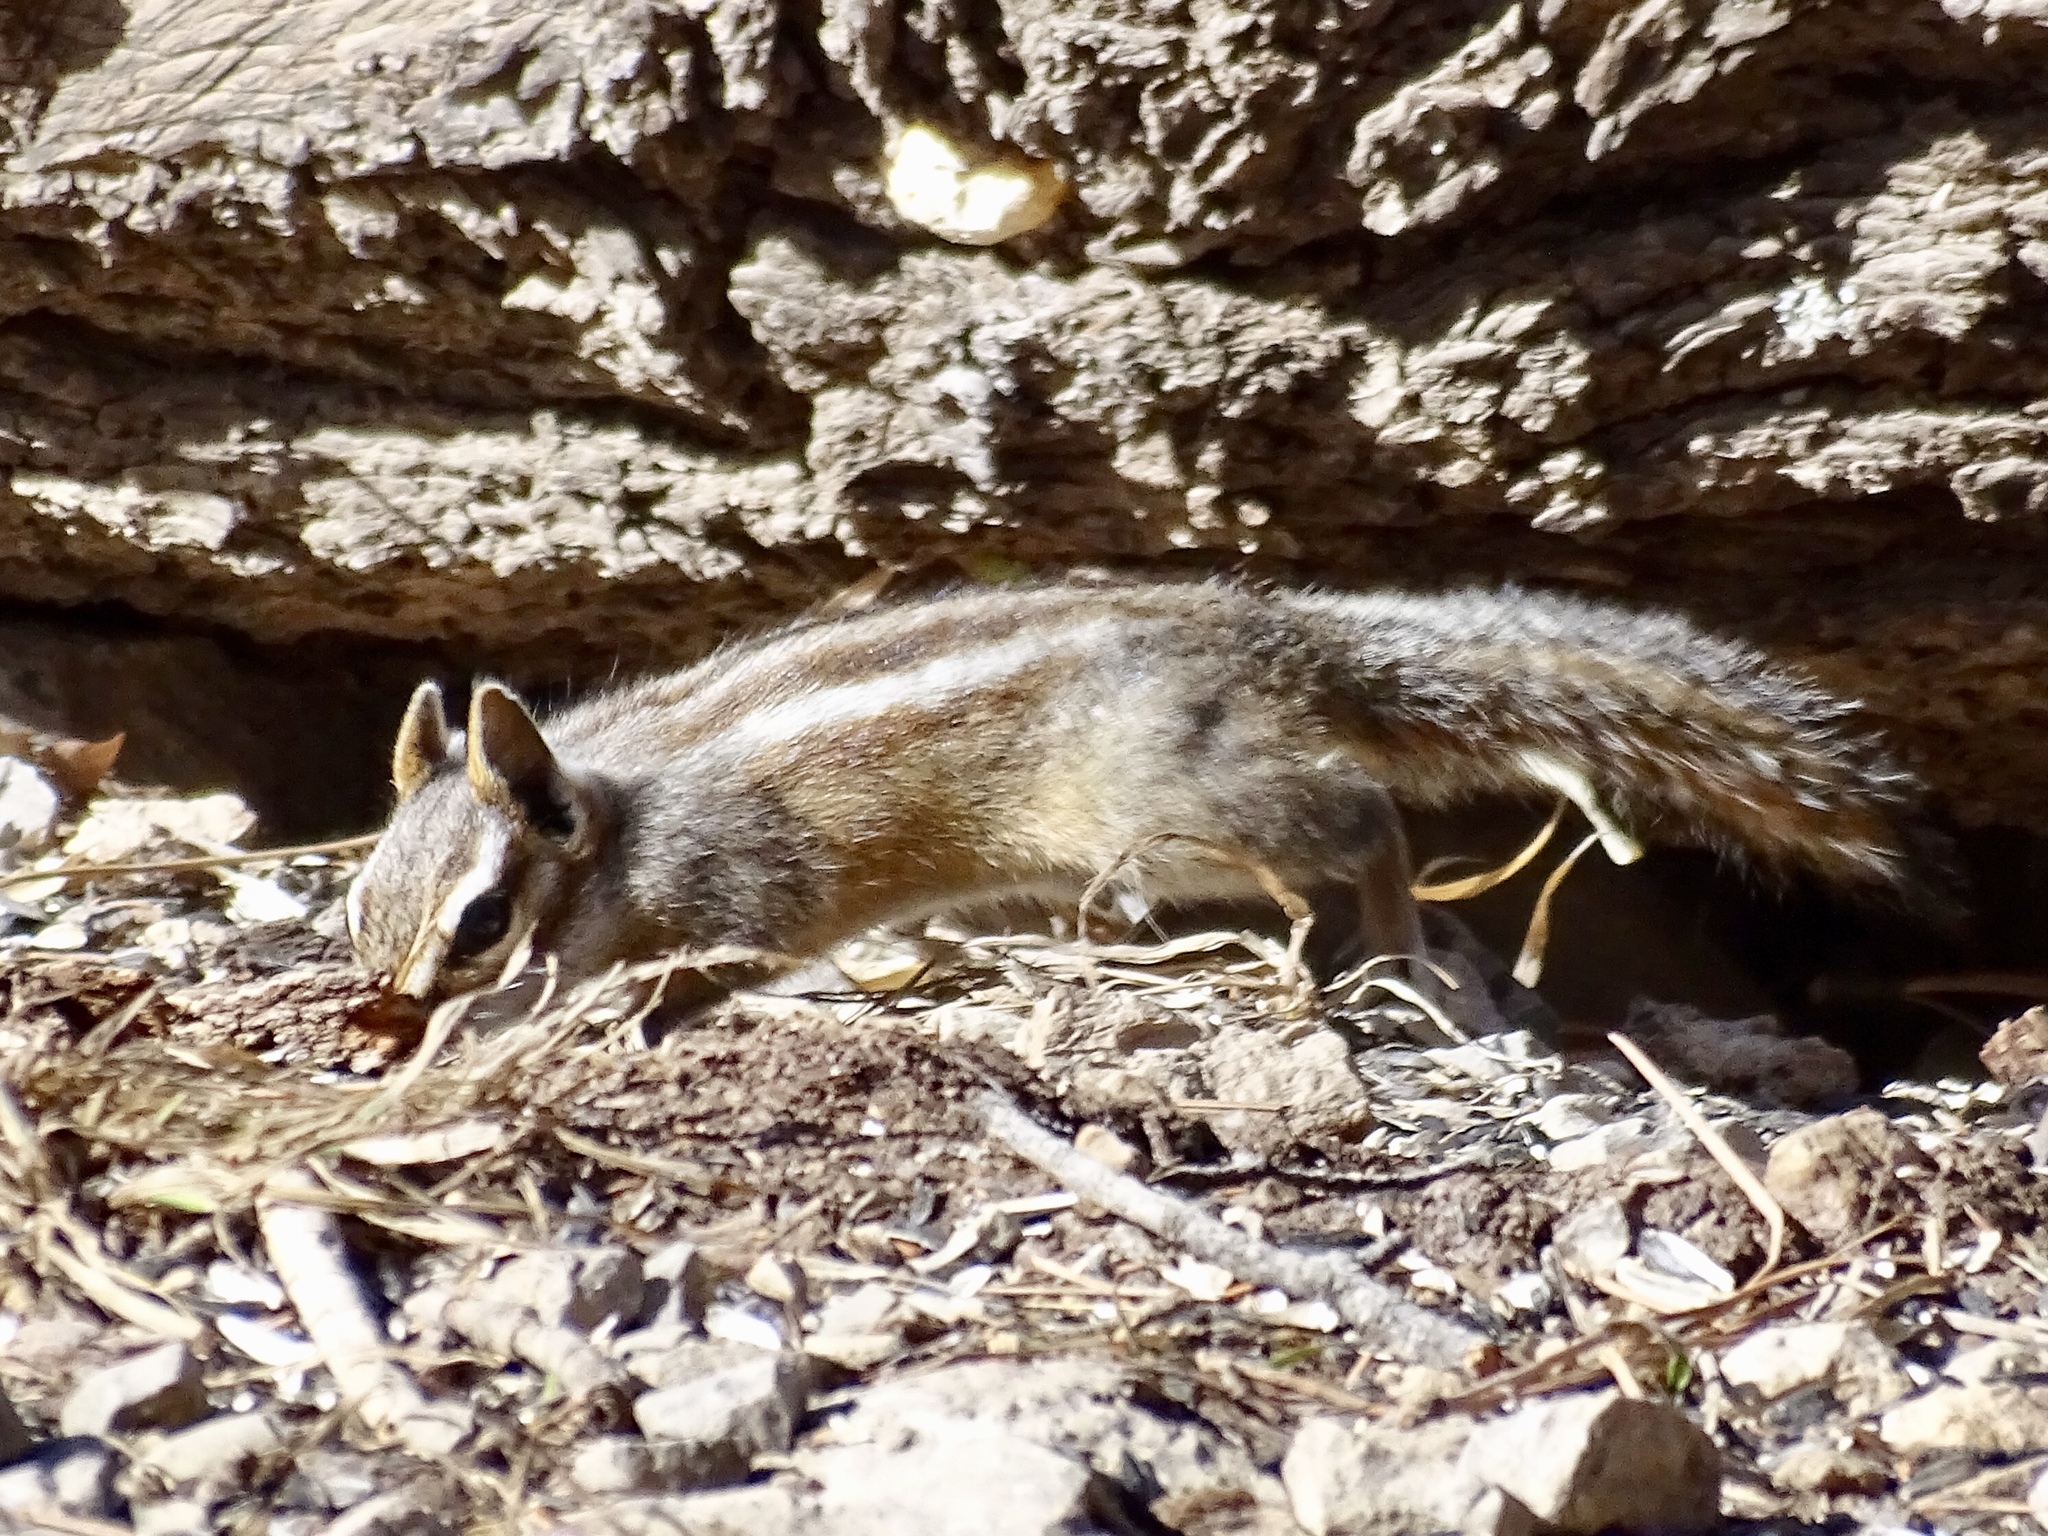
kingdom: Animalia
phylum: Chordata
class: Mammalia
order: Rodentia
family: Sciuridae
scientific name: Sciuridae
